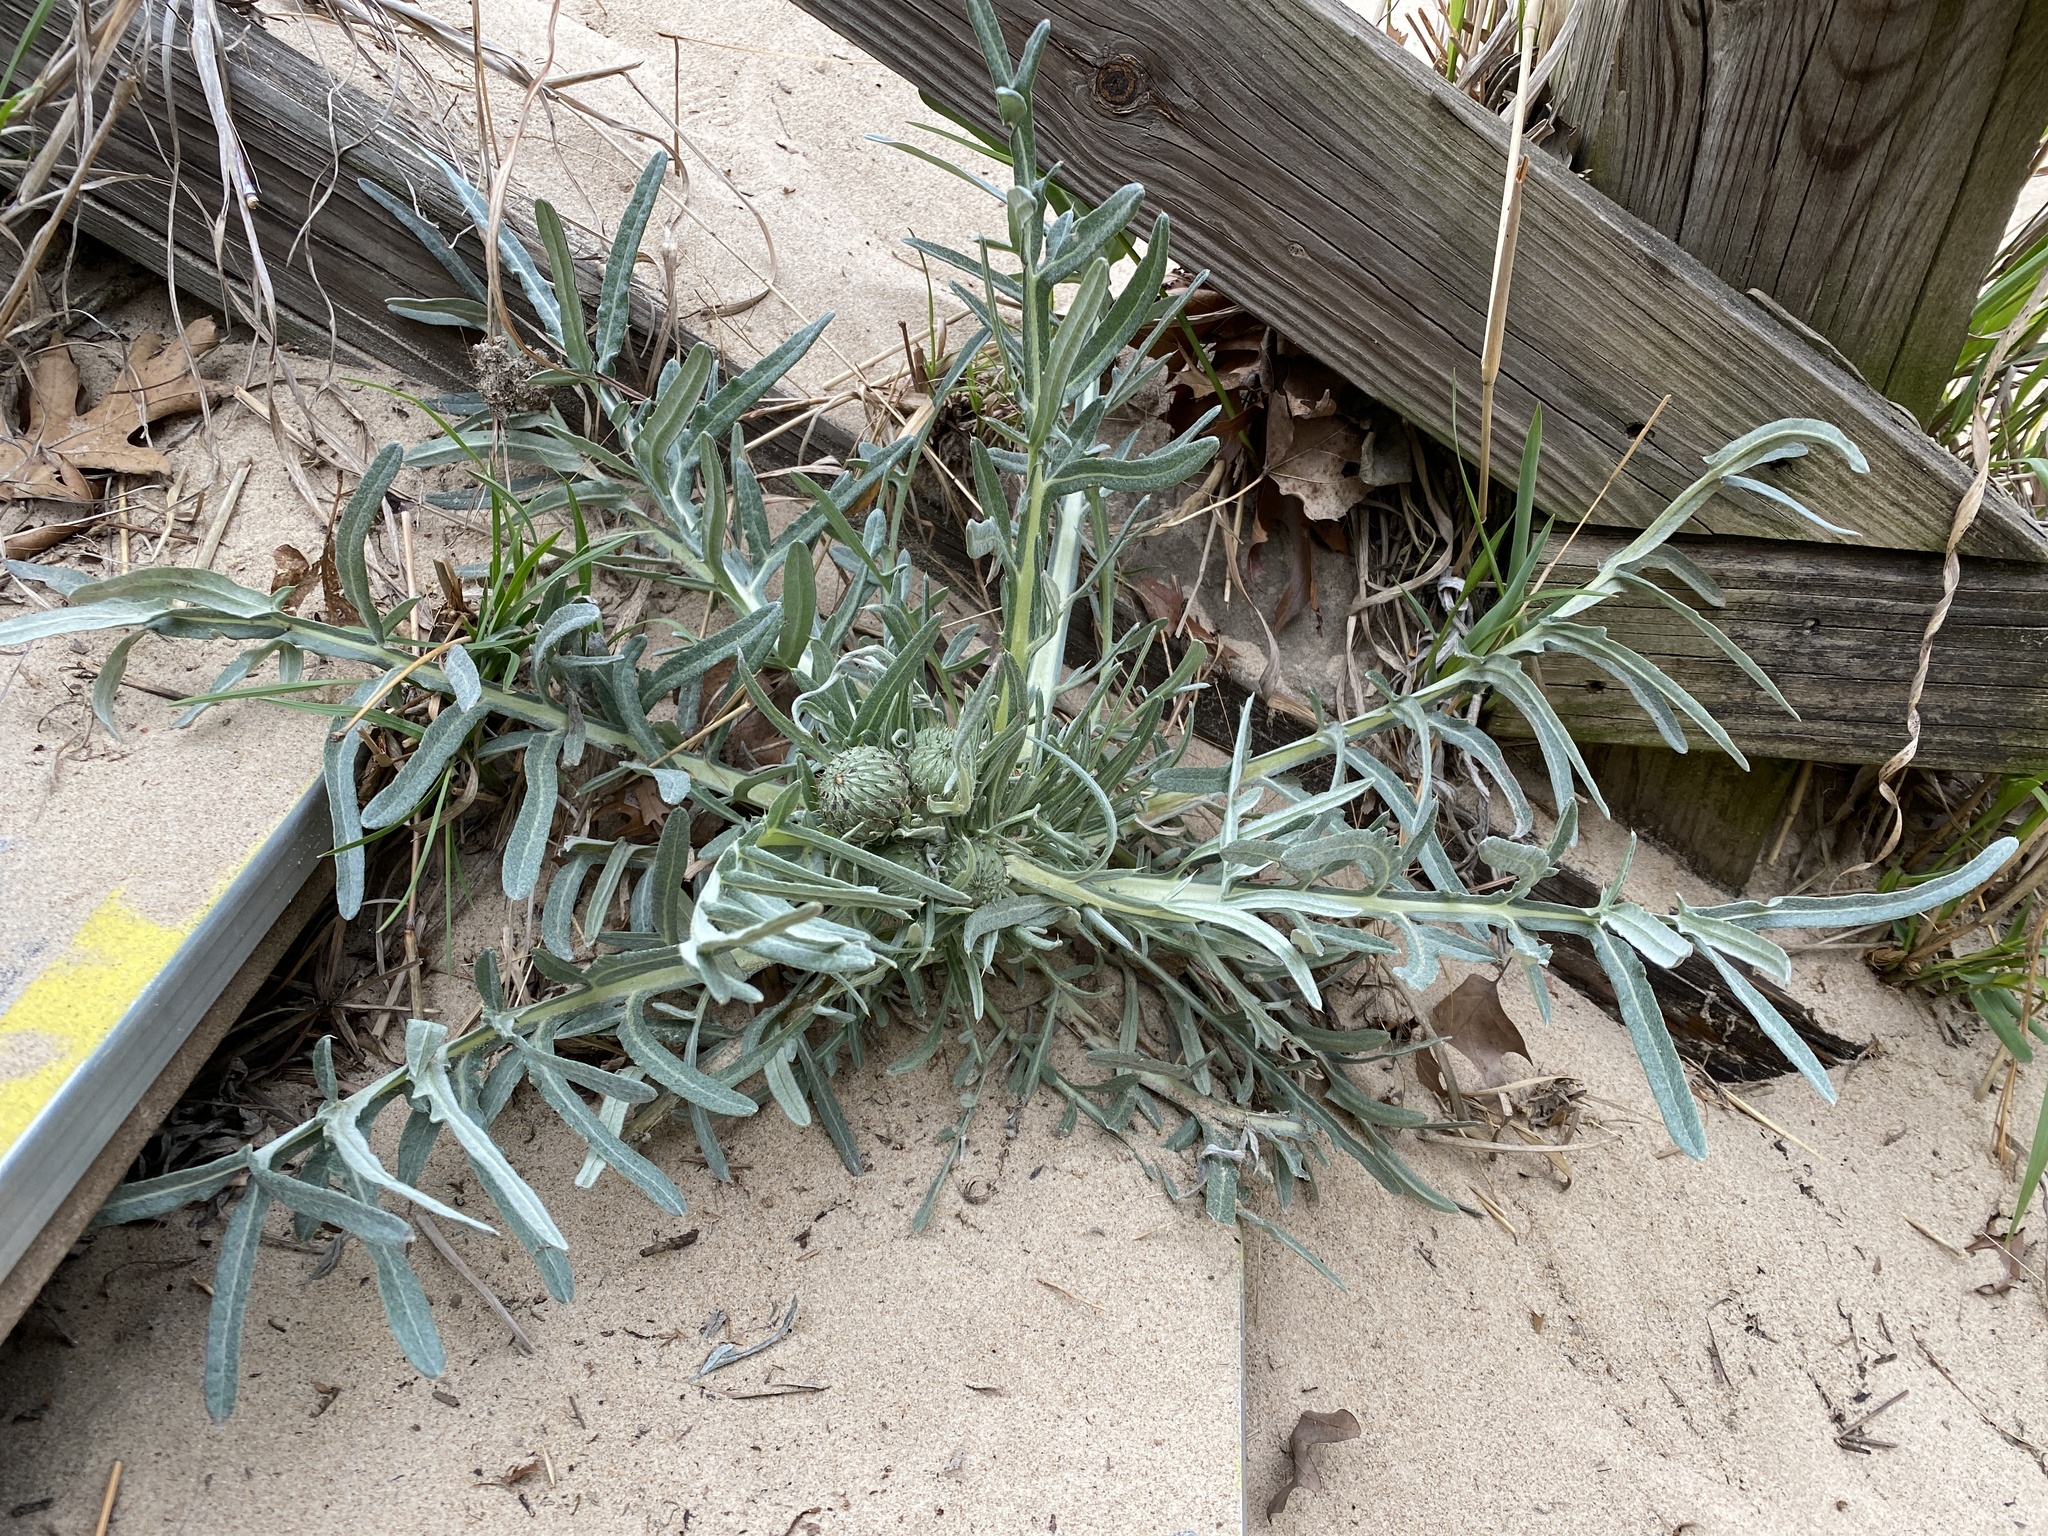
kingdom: Plantae
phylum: Tracheophyta
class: Magnoliopsida
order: Asterales
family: Asteraceae
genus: Cirsium
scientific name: Cirsium pitcheri
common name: Dune thistle
